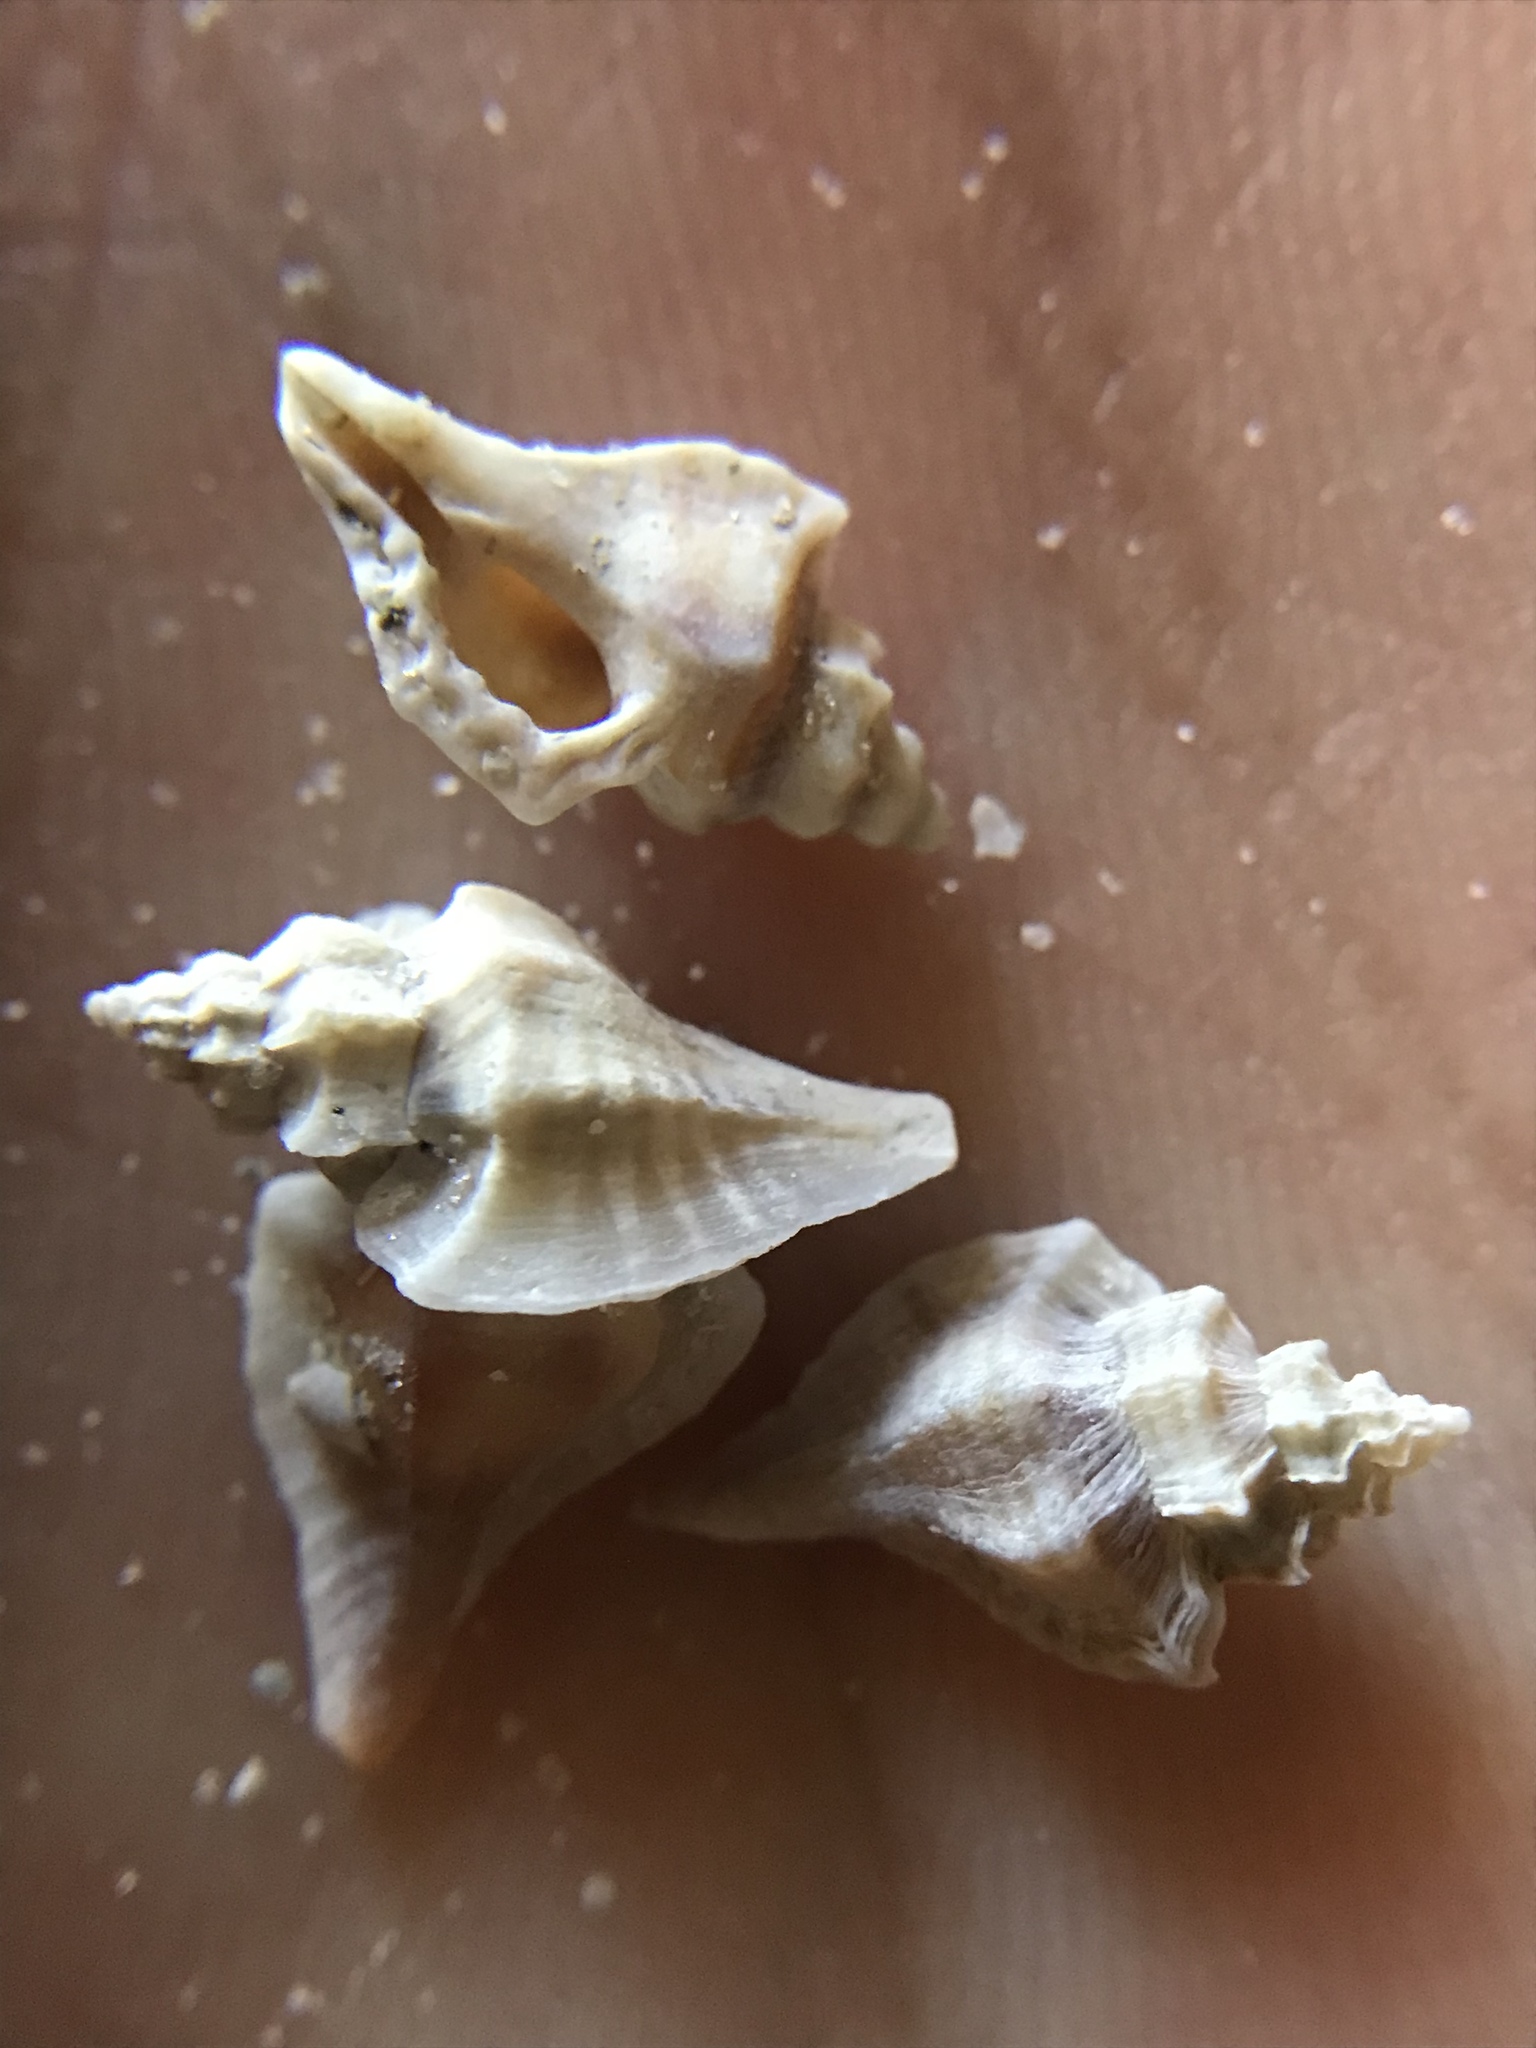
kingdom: Animalia
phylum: Mollusca
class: Gastropoda
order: Neogastropoda
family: Muricidae
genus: Eupleura
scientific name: Eupleura sulcidentata
